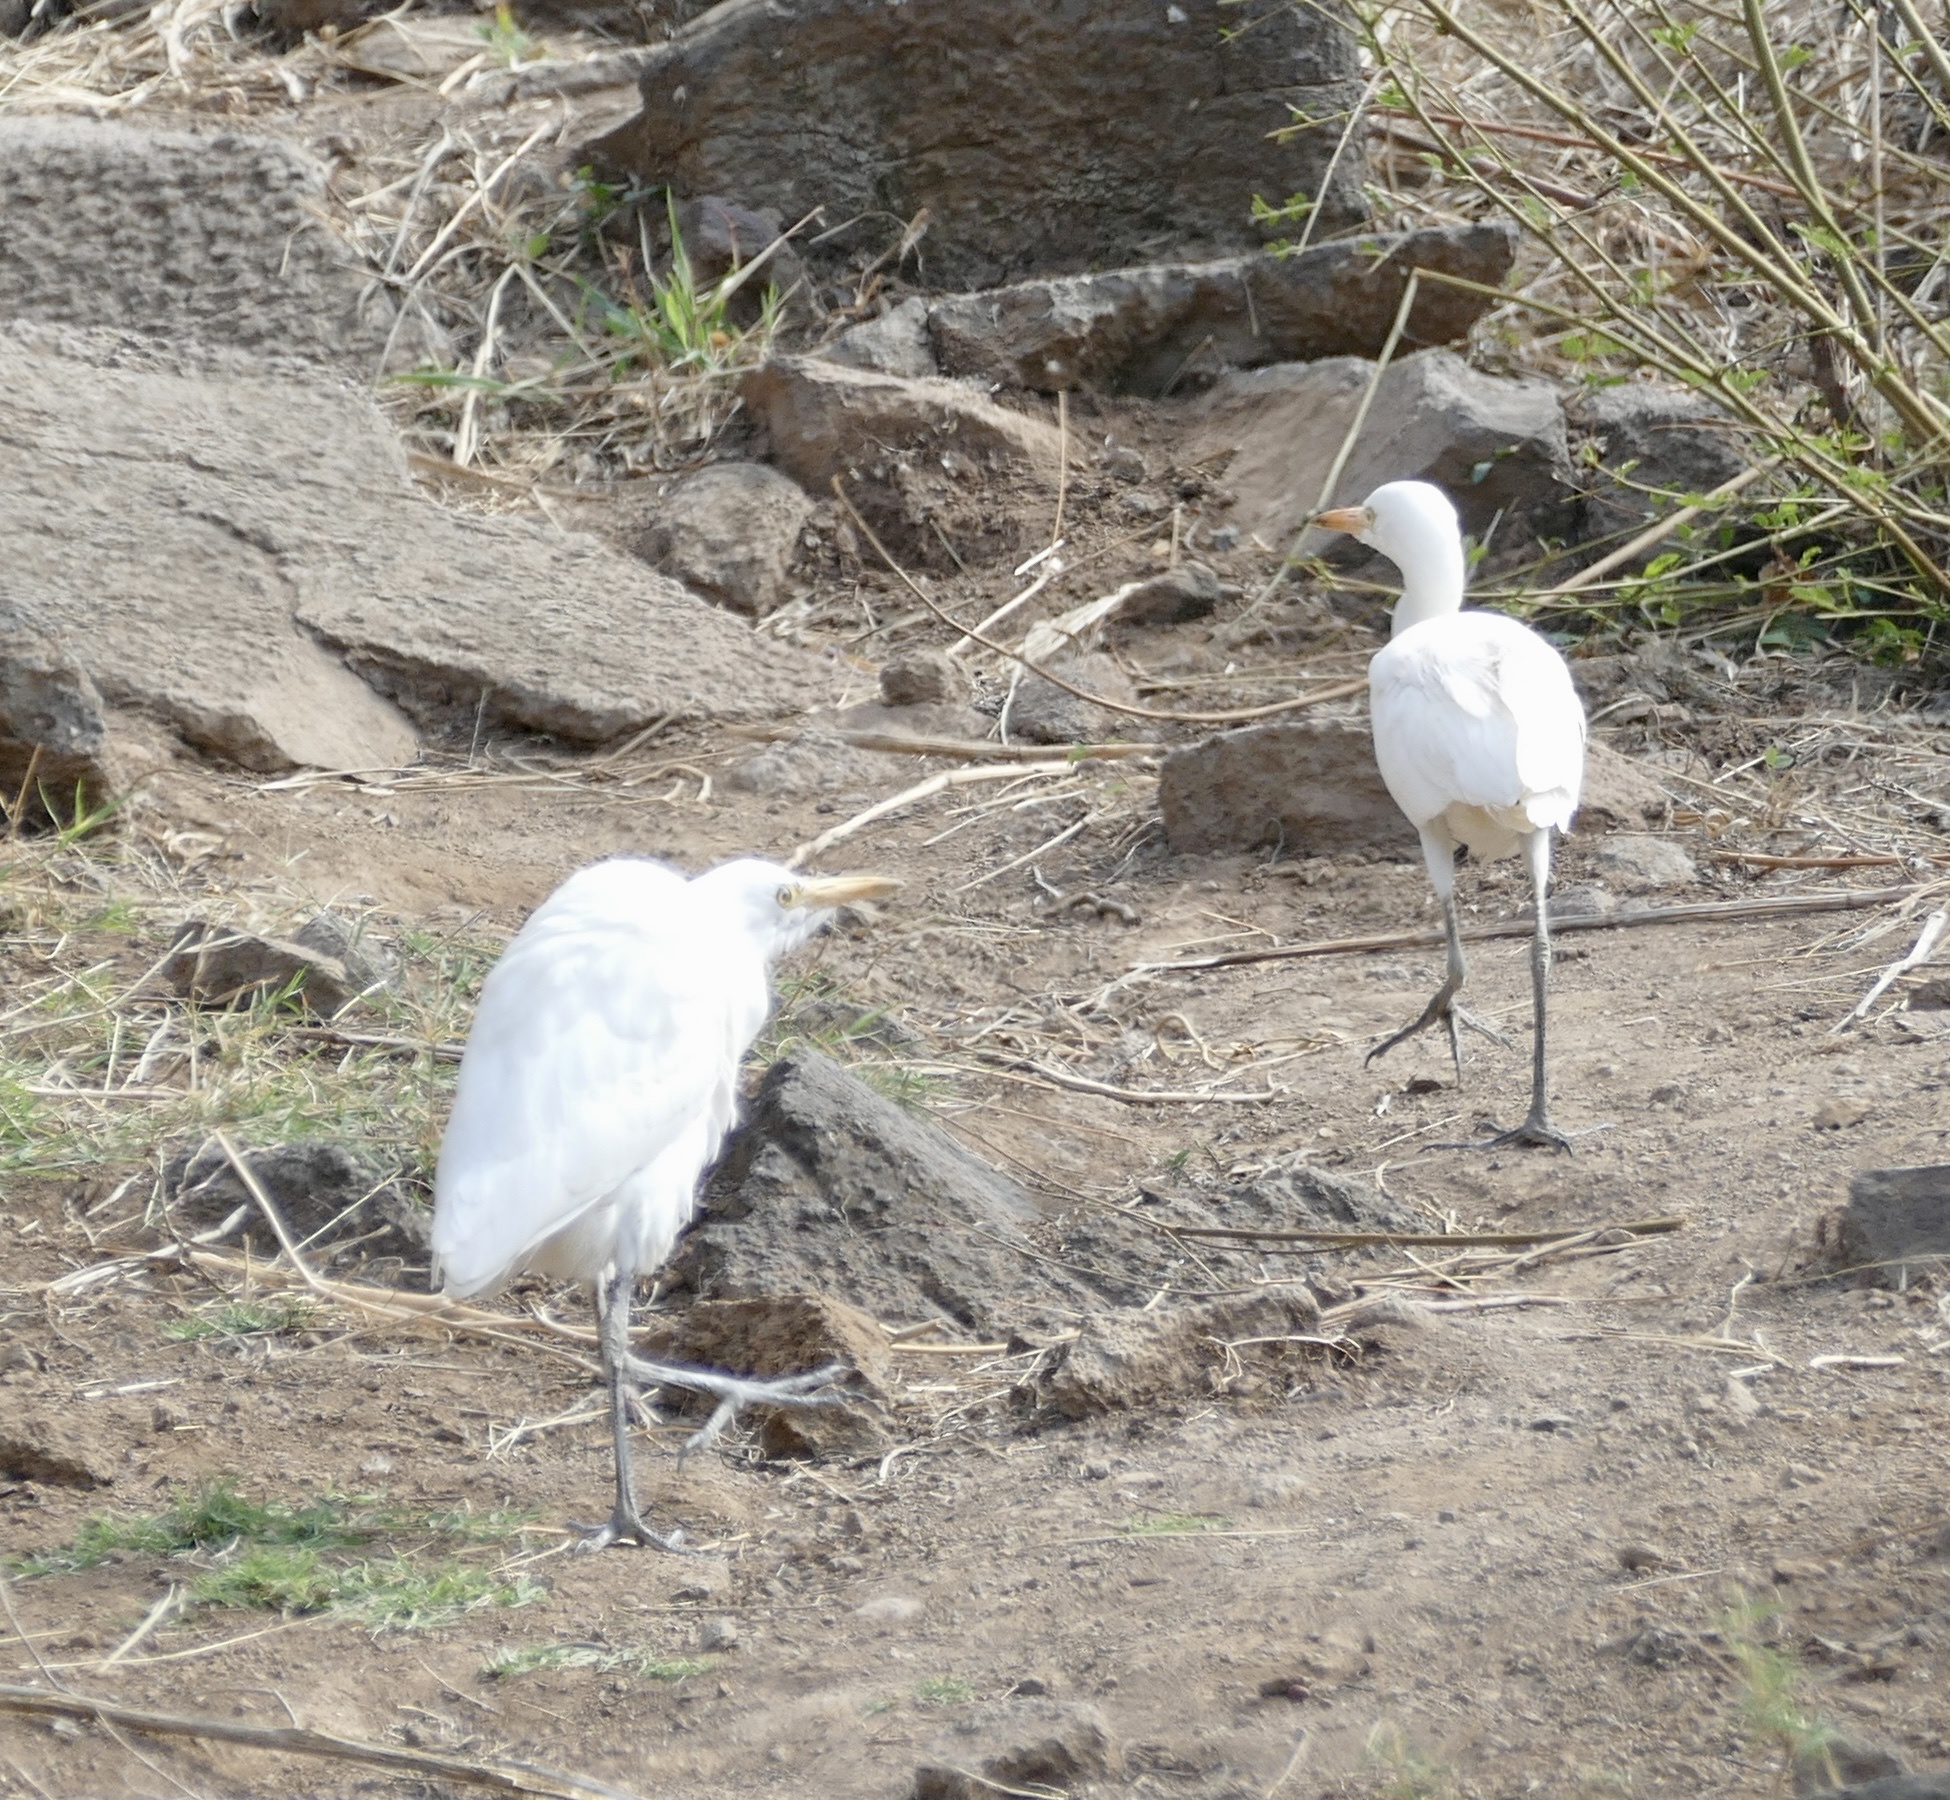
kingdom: Animalia
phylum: Chordata
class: Aves
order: Pelecaniformes
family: Ardeidae
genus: Bubulcus
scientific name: Bubulcus ibis
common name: Cattle egret
